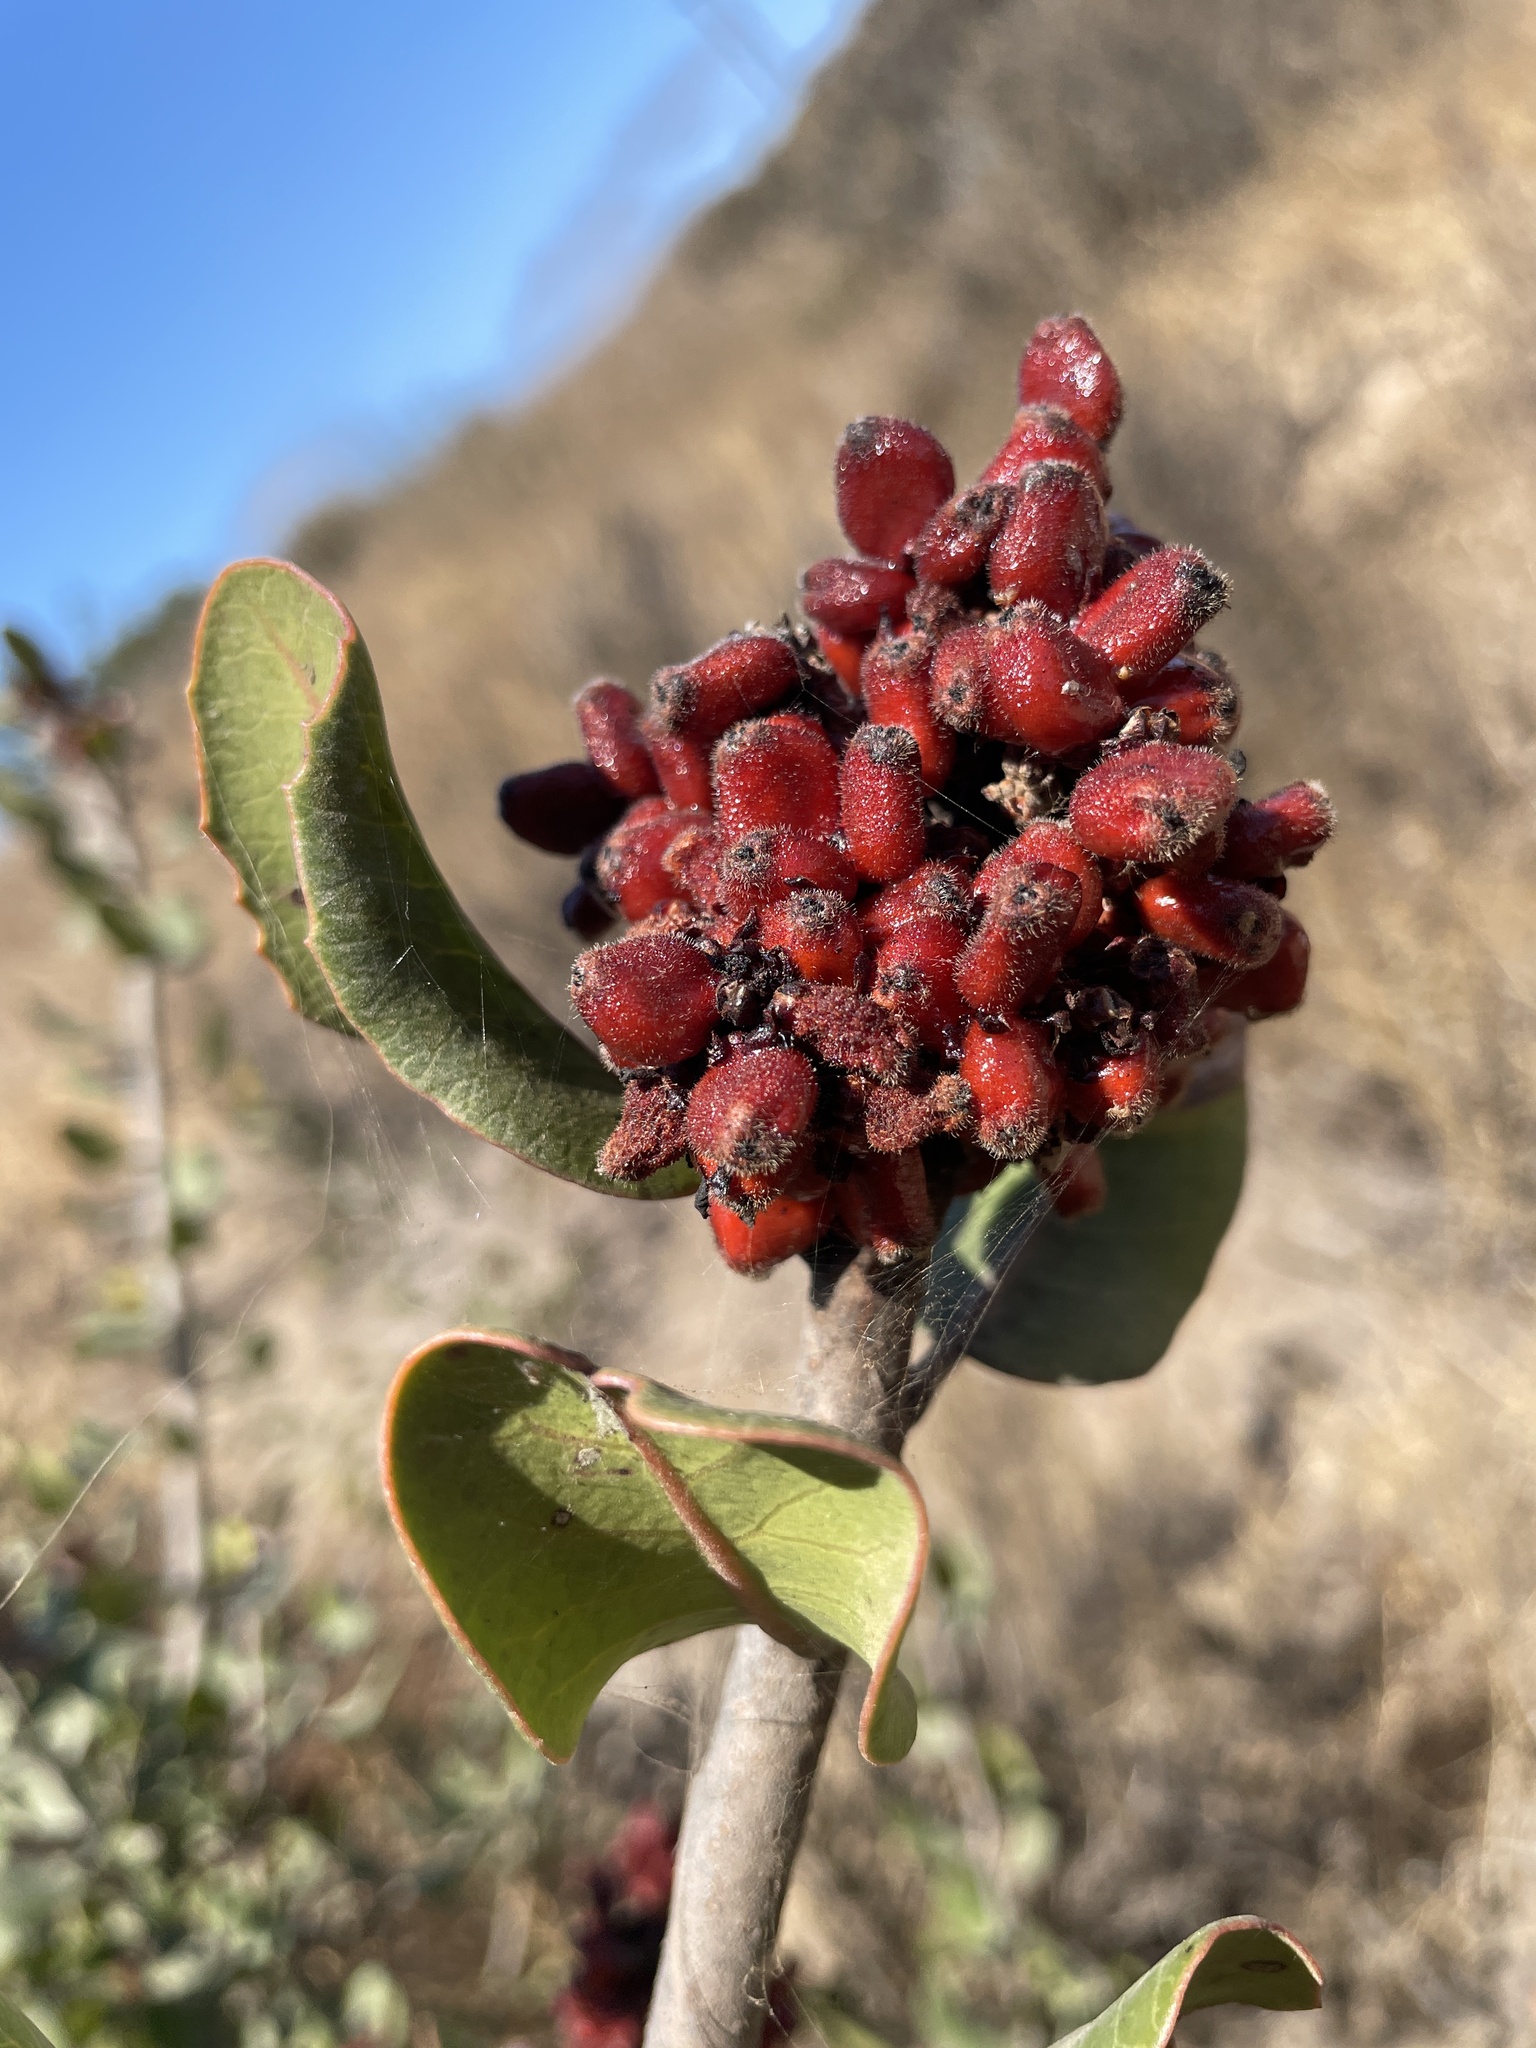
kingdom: Plantae
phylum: Tracheophyta
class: Magnoliopsida
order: Sapindales
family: Anacardiaceae
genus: Rhus
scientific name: Rhus integrifolia
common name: Lemonade sumac
